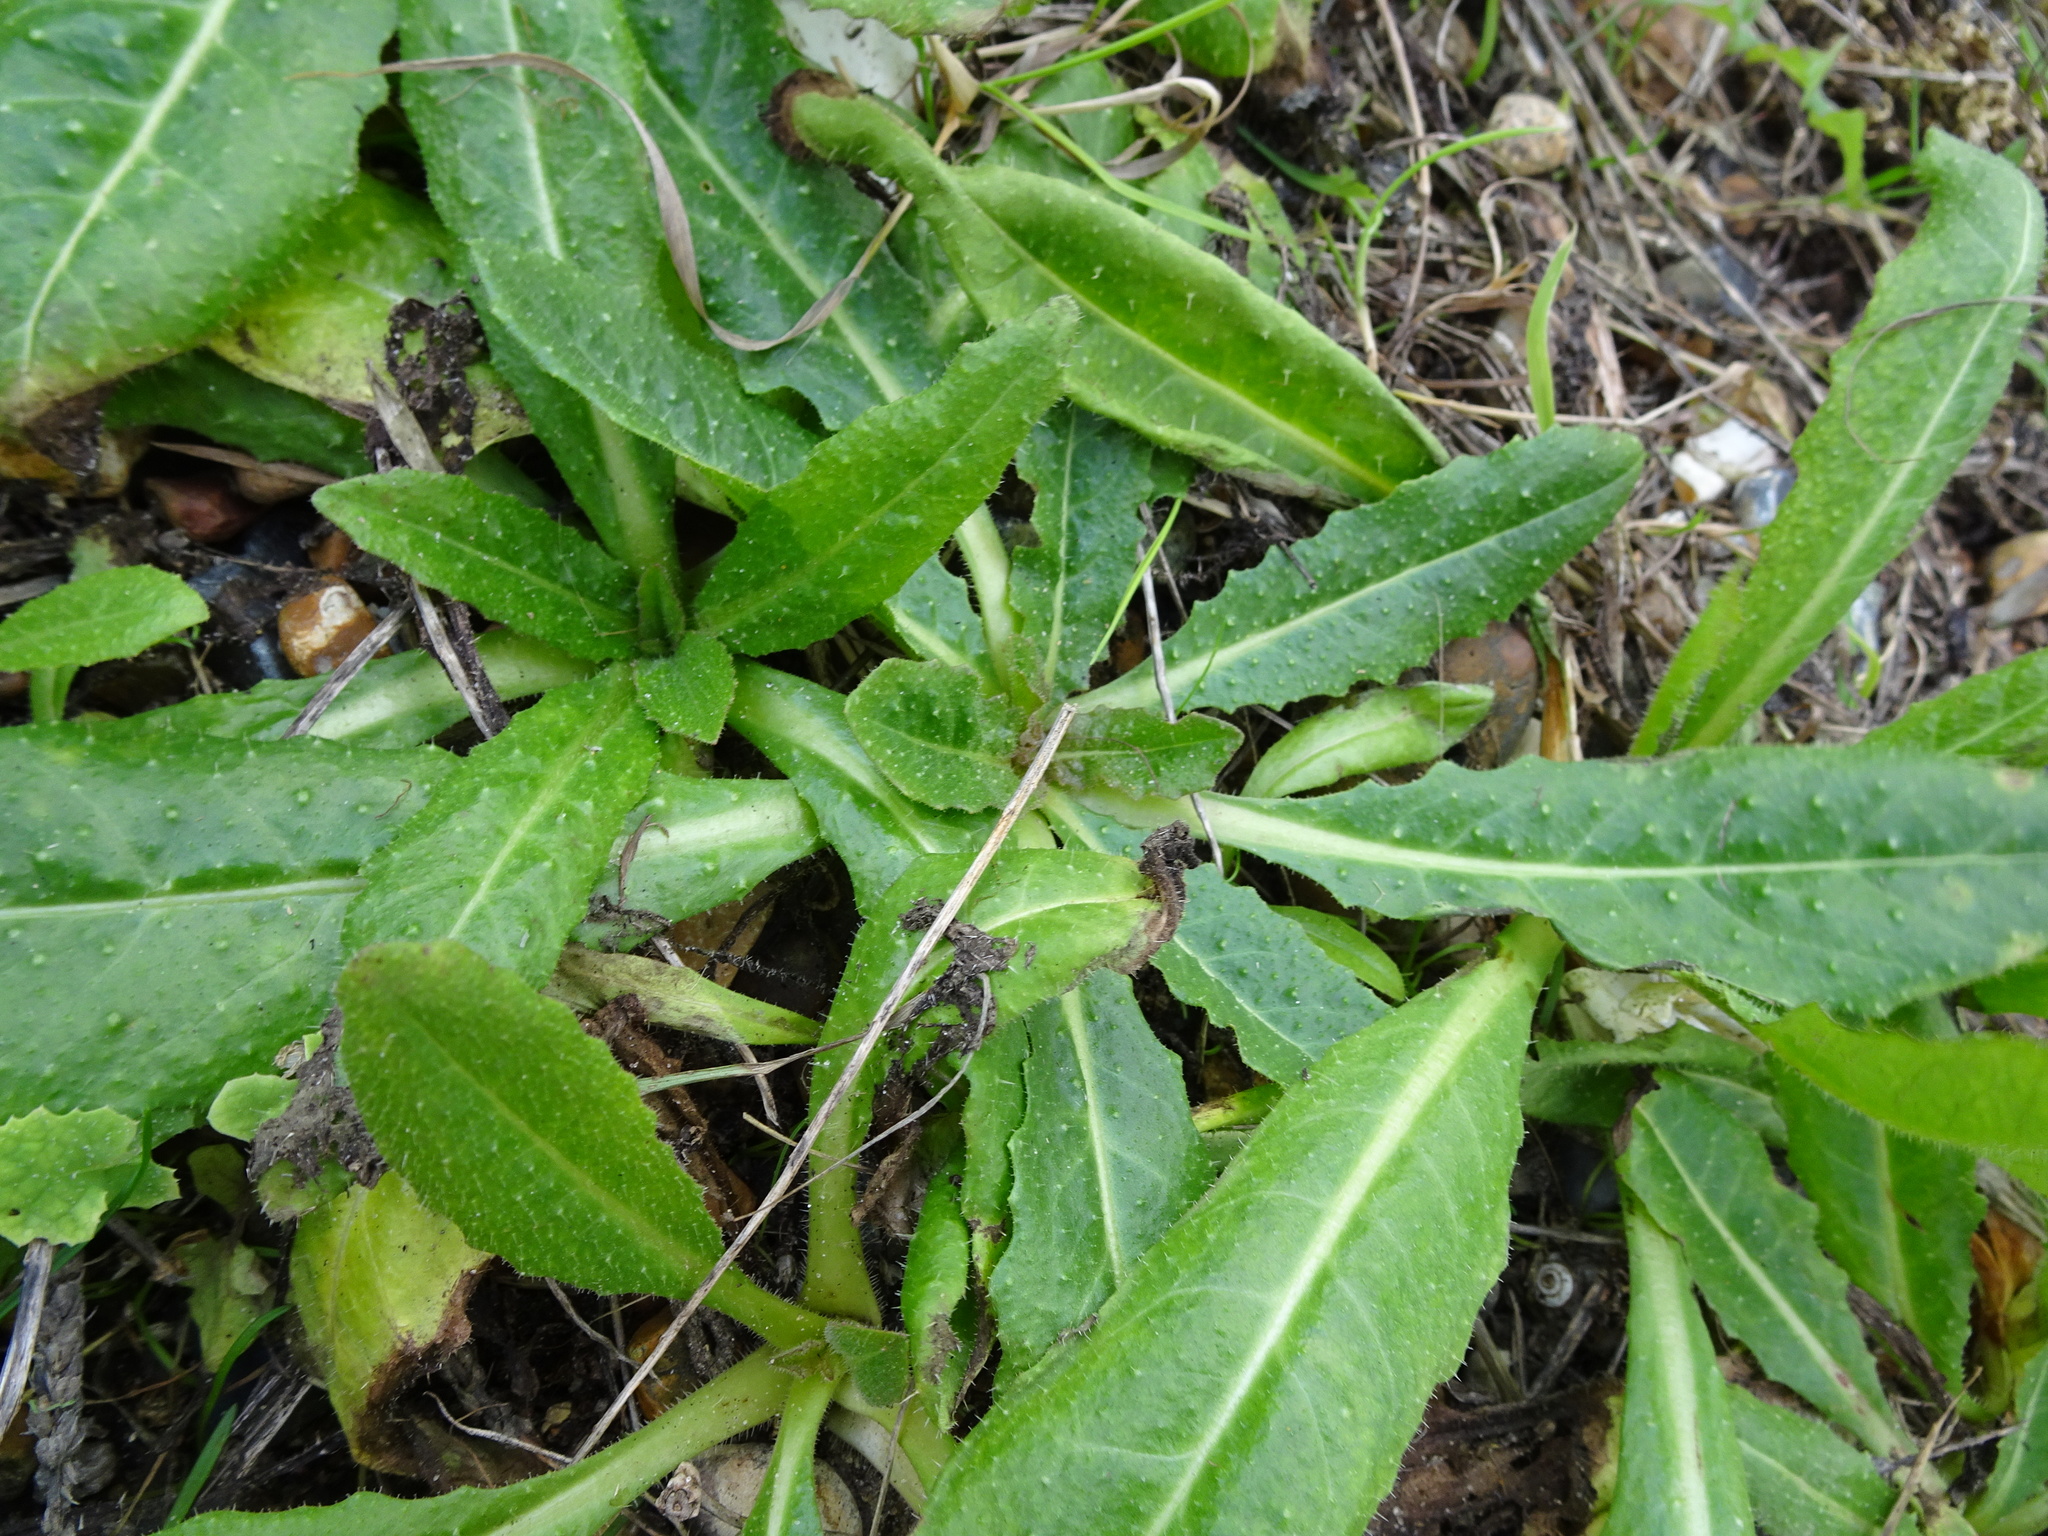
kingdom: Plantae
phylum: Tracheophyta
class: Magnoliopsida
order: Asterales
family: Asteraceae
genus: Helminthotheca
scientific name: Helminthotheca echioides
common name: Ox-tongue
